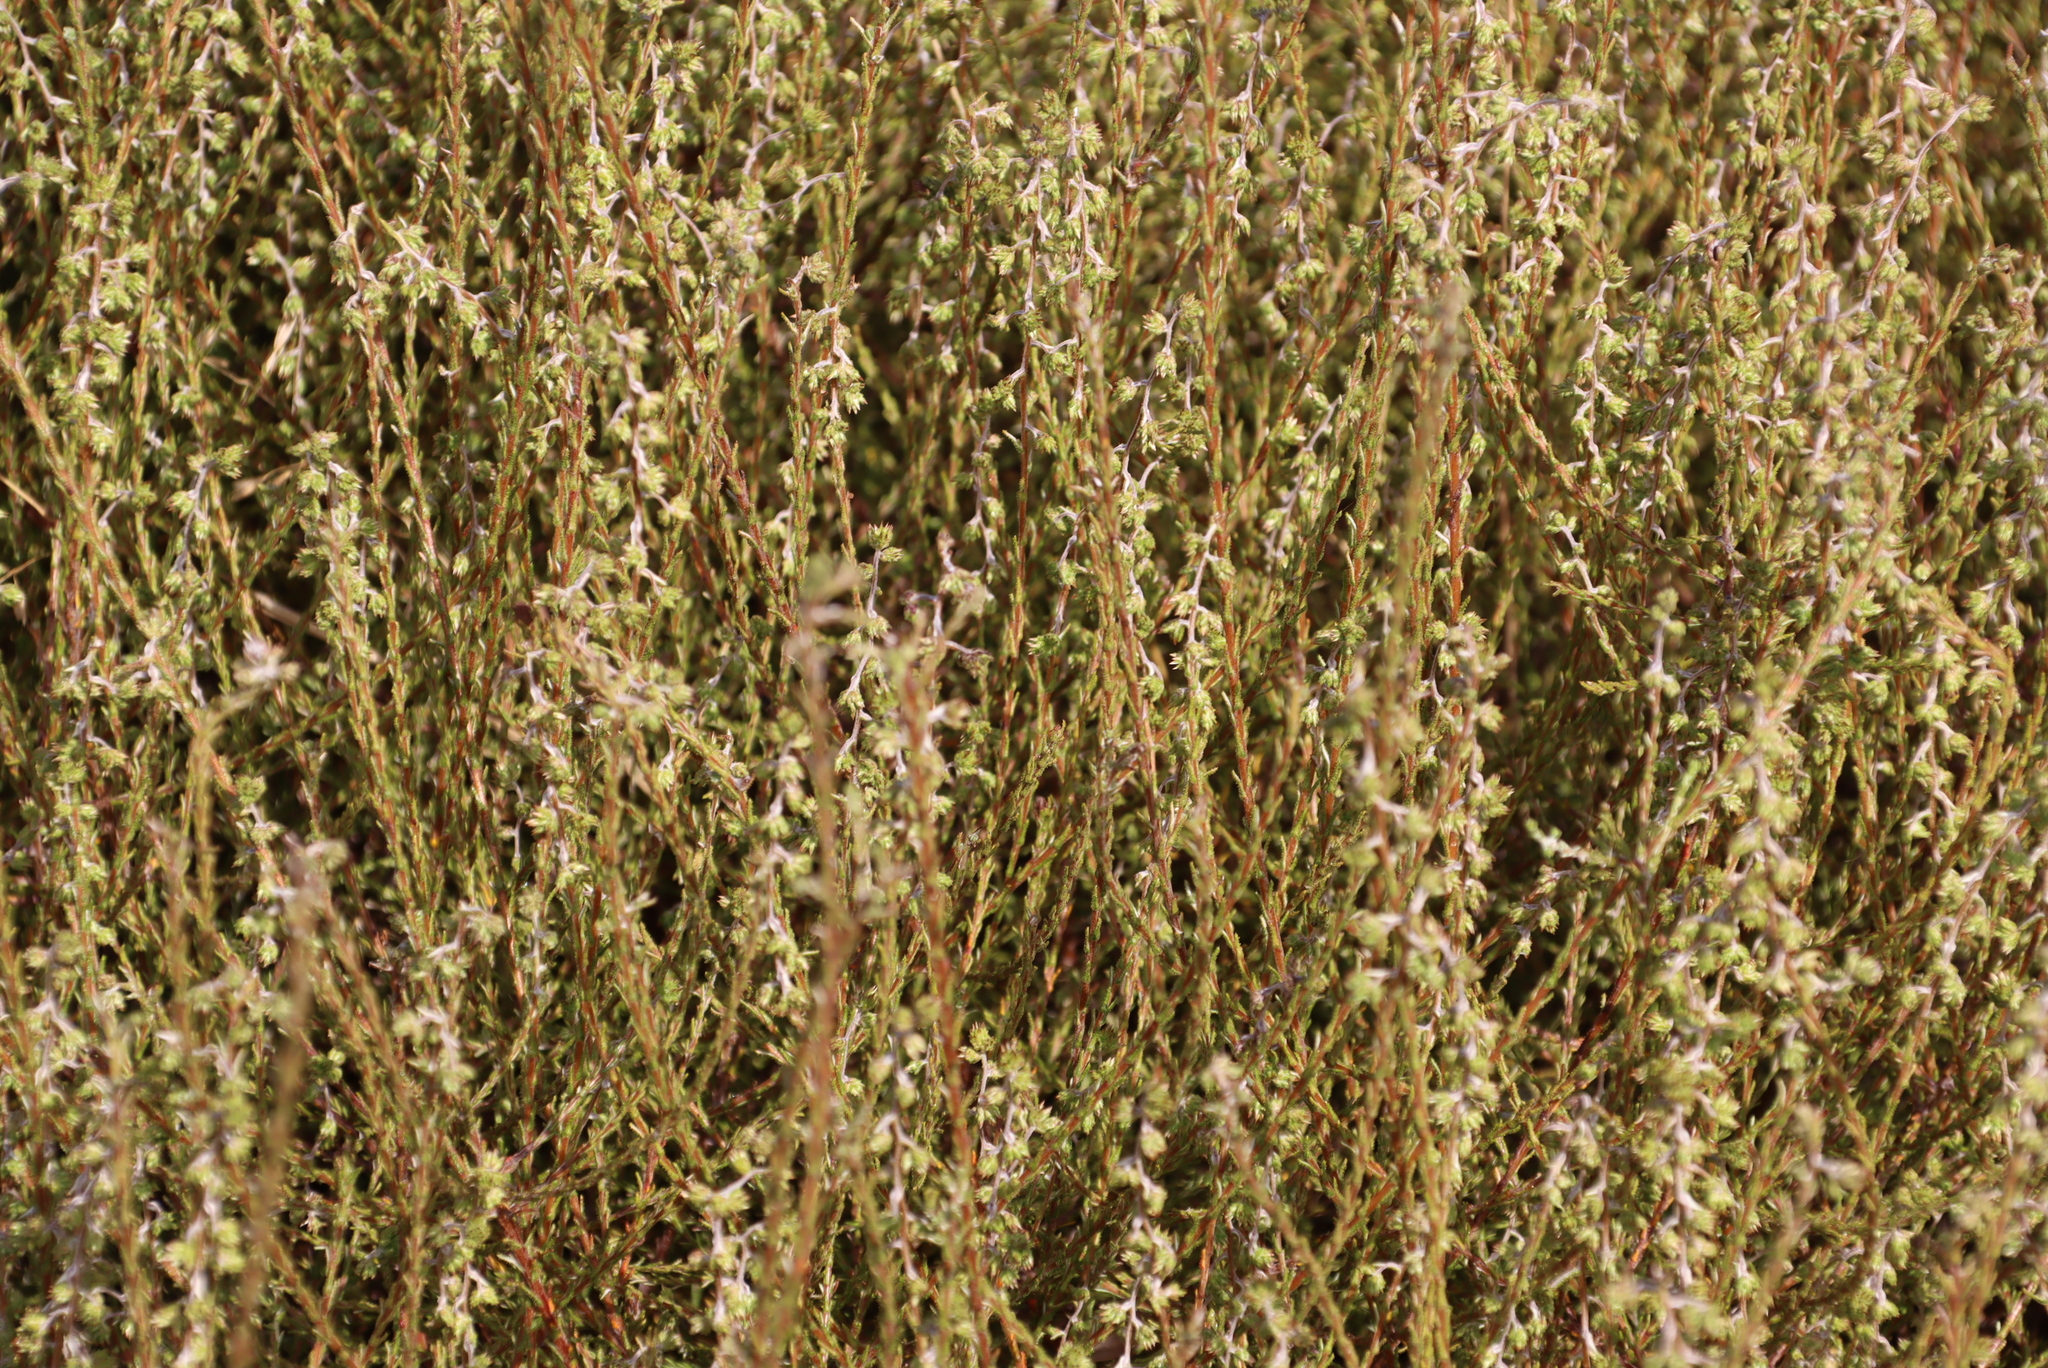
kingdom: Plantae
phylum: Tracheophyta
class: Magnoliopsida
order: Asterales
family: Asteraceae
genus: Myrovernix
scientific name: Myrovernix scaber
